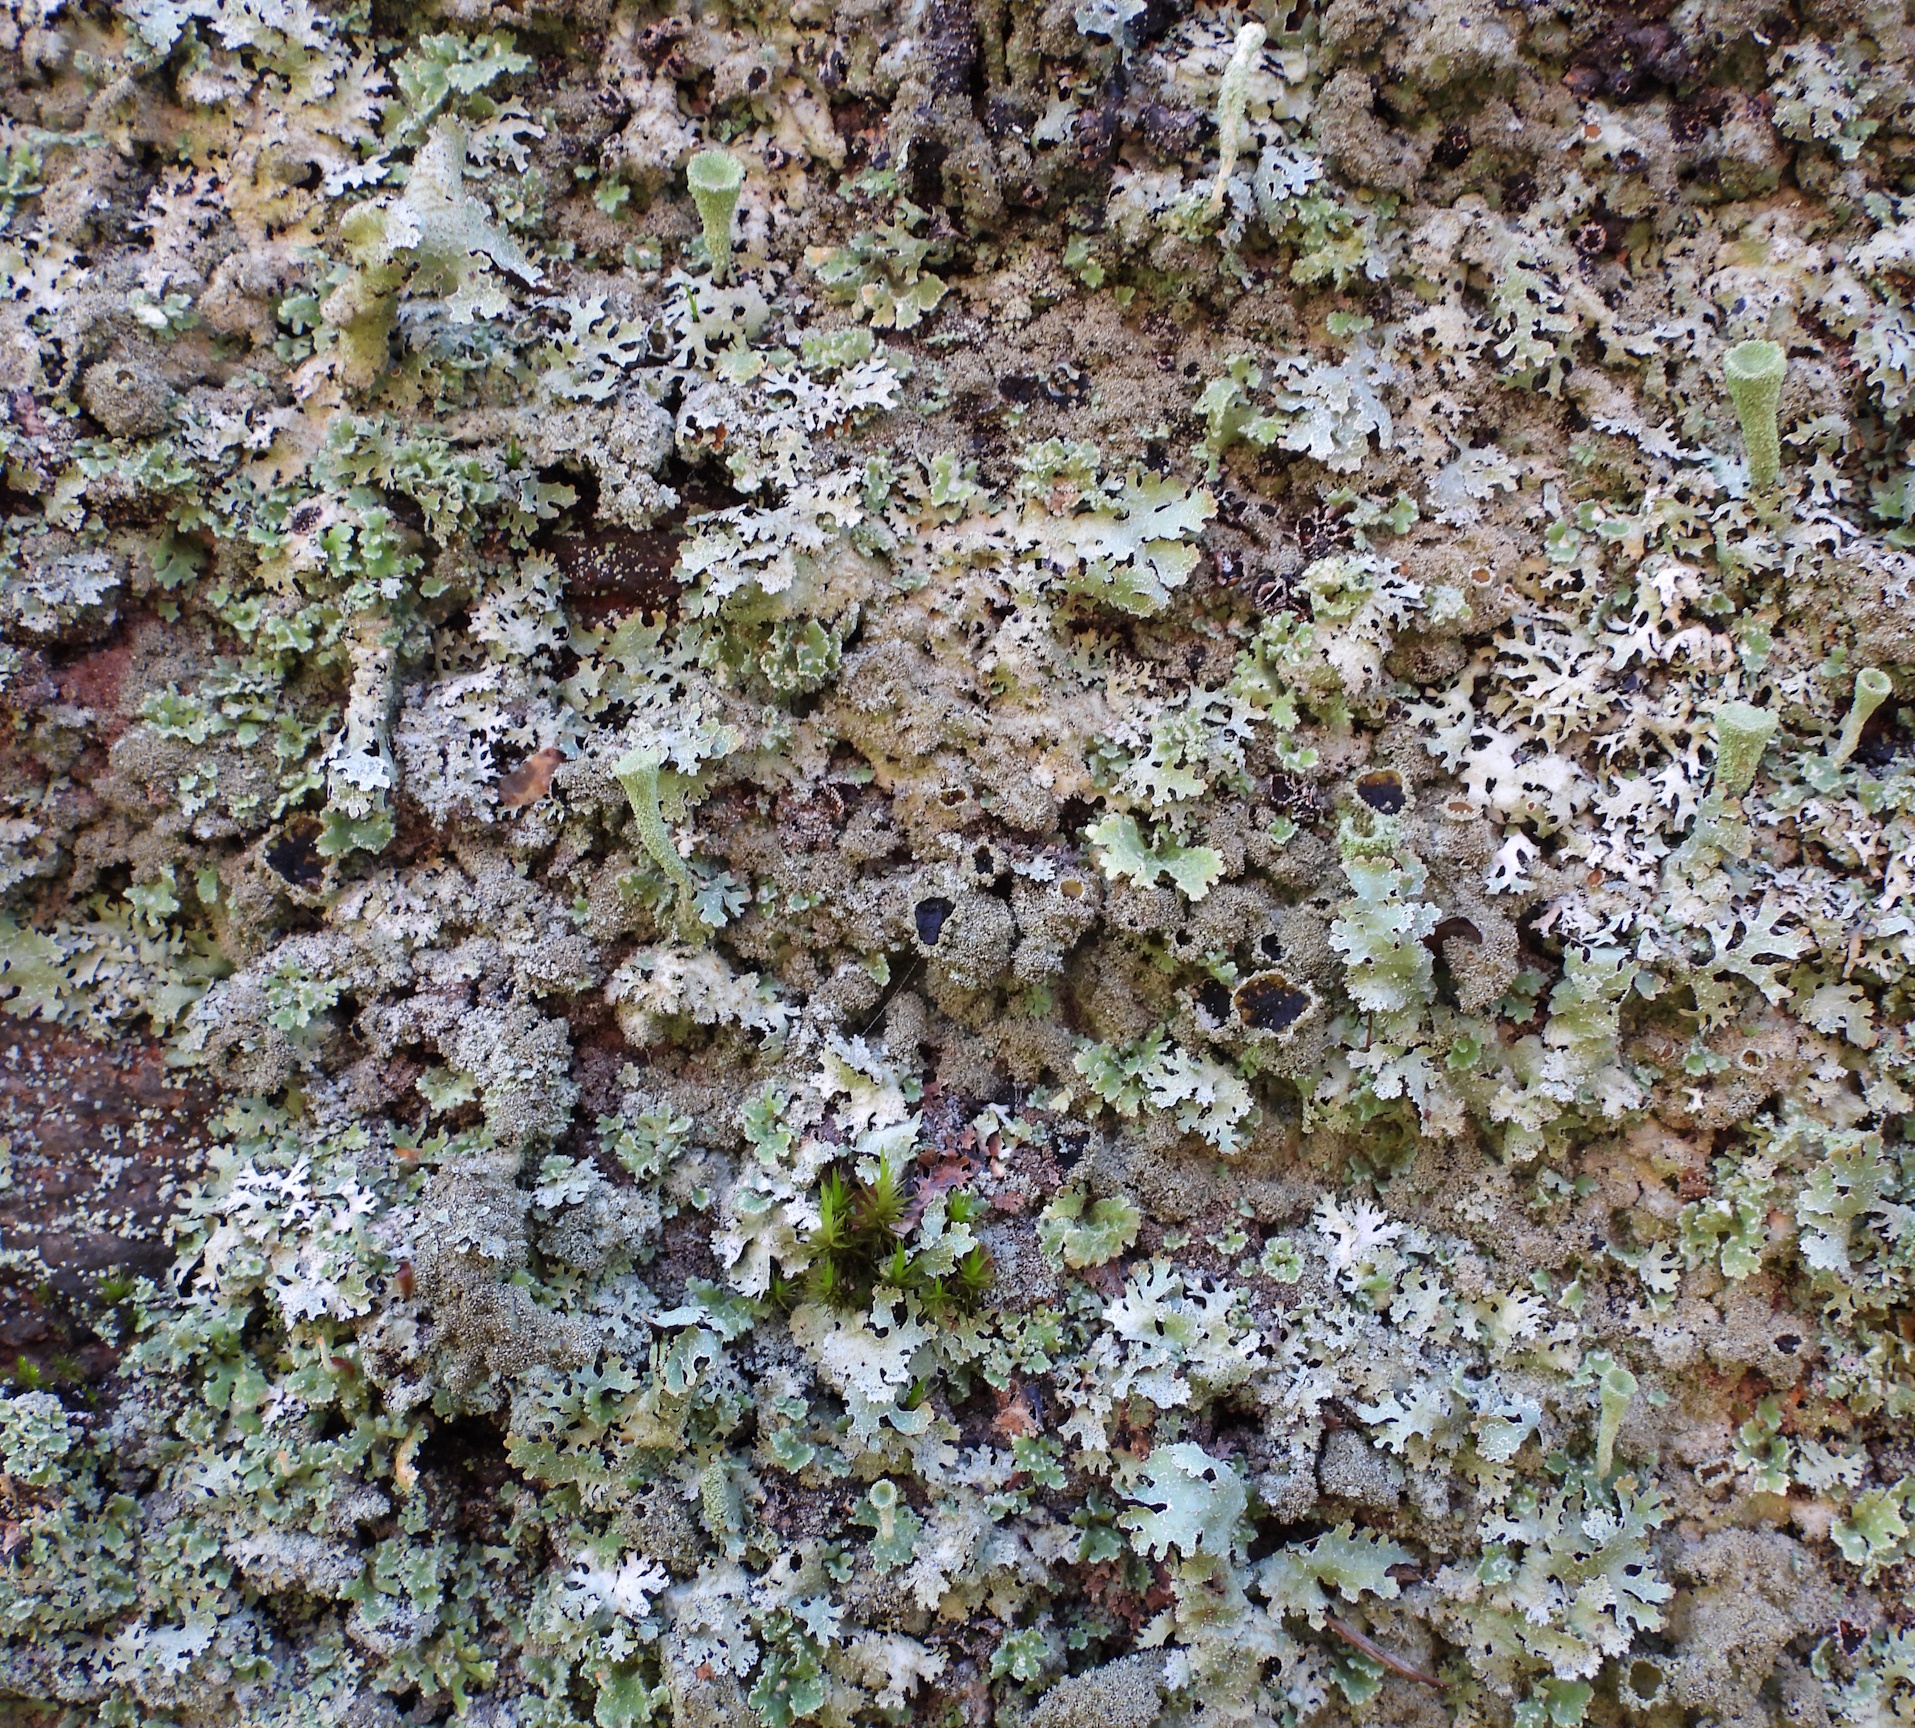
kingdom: Fungi
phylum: Ascomycota
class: Lecanoromycetes
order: Lecanorales
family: Parmeliaceae
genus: Parmelia
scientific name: Parmelia saxatilis
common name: Salted shield lichen
